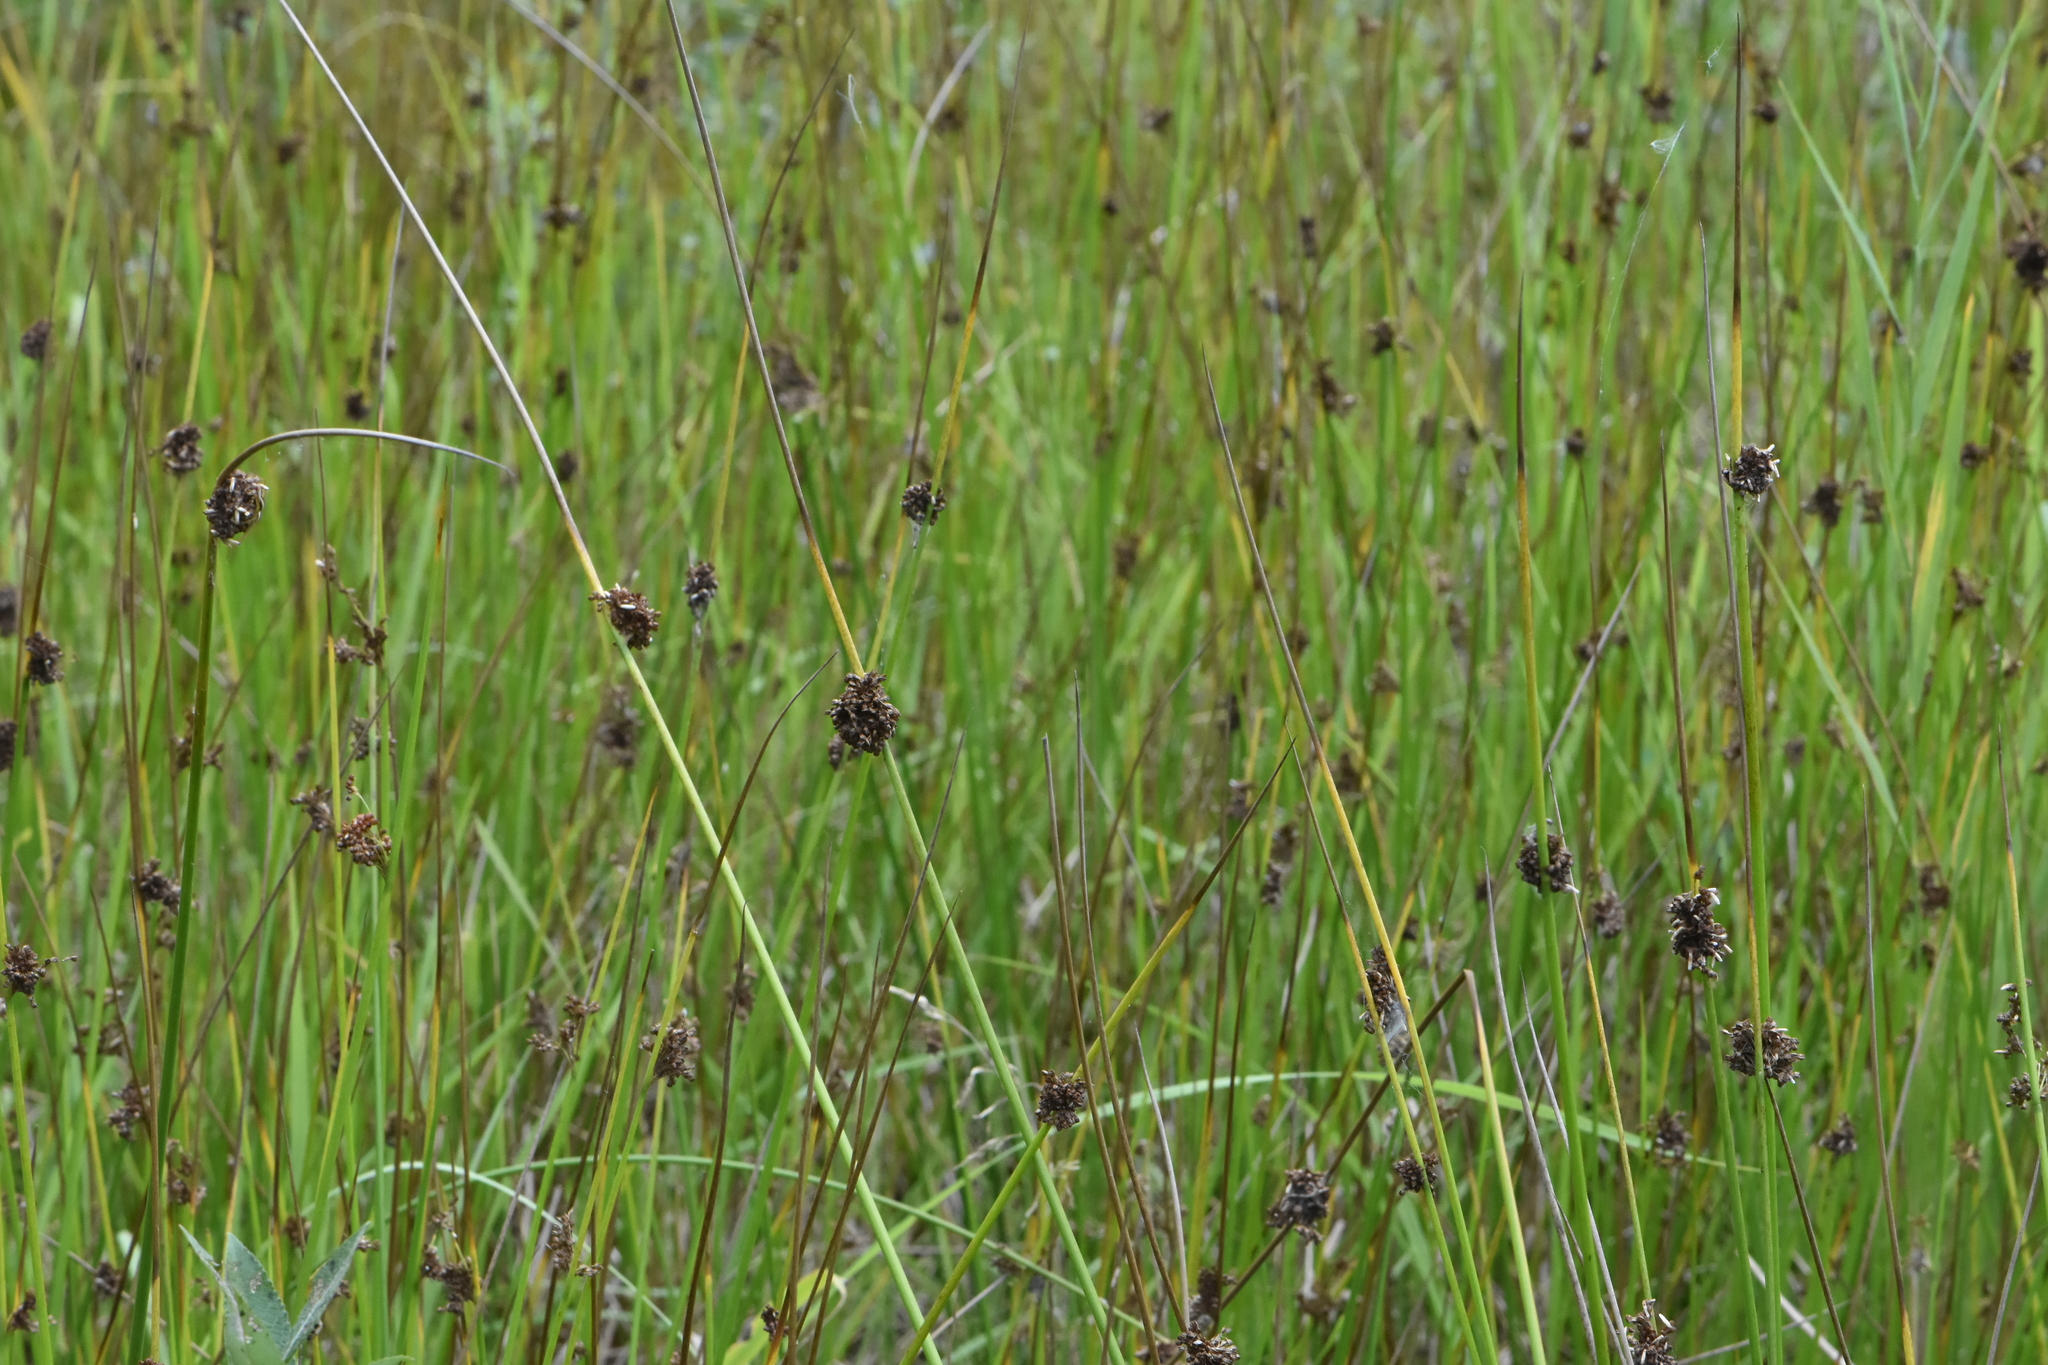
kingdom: Plantae
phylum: Tracheophyta
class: Liliopsida
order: Poales
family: Juncaceae
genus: Juncus
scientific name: Juncus conglomeratus
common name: Compact rush
